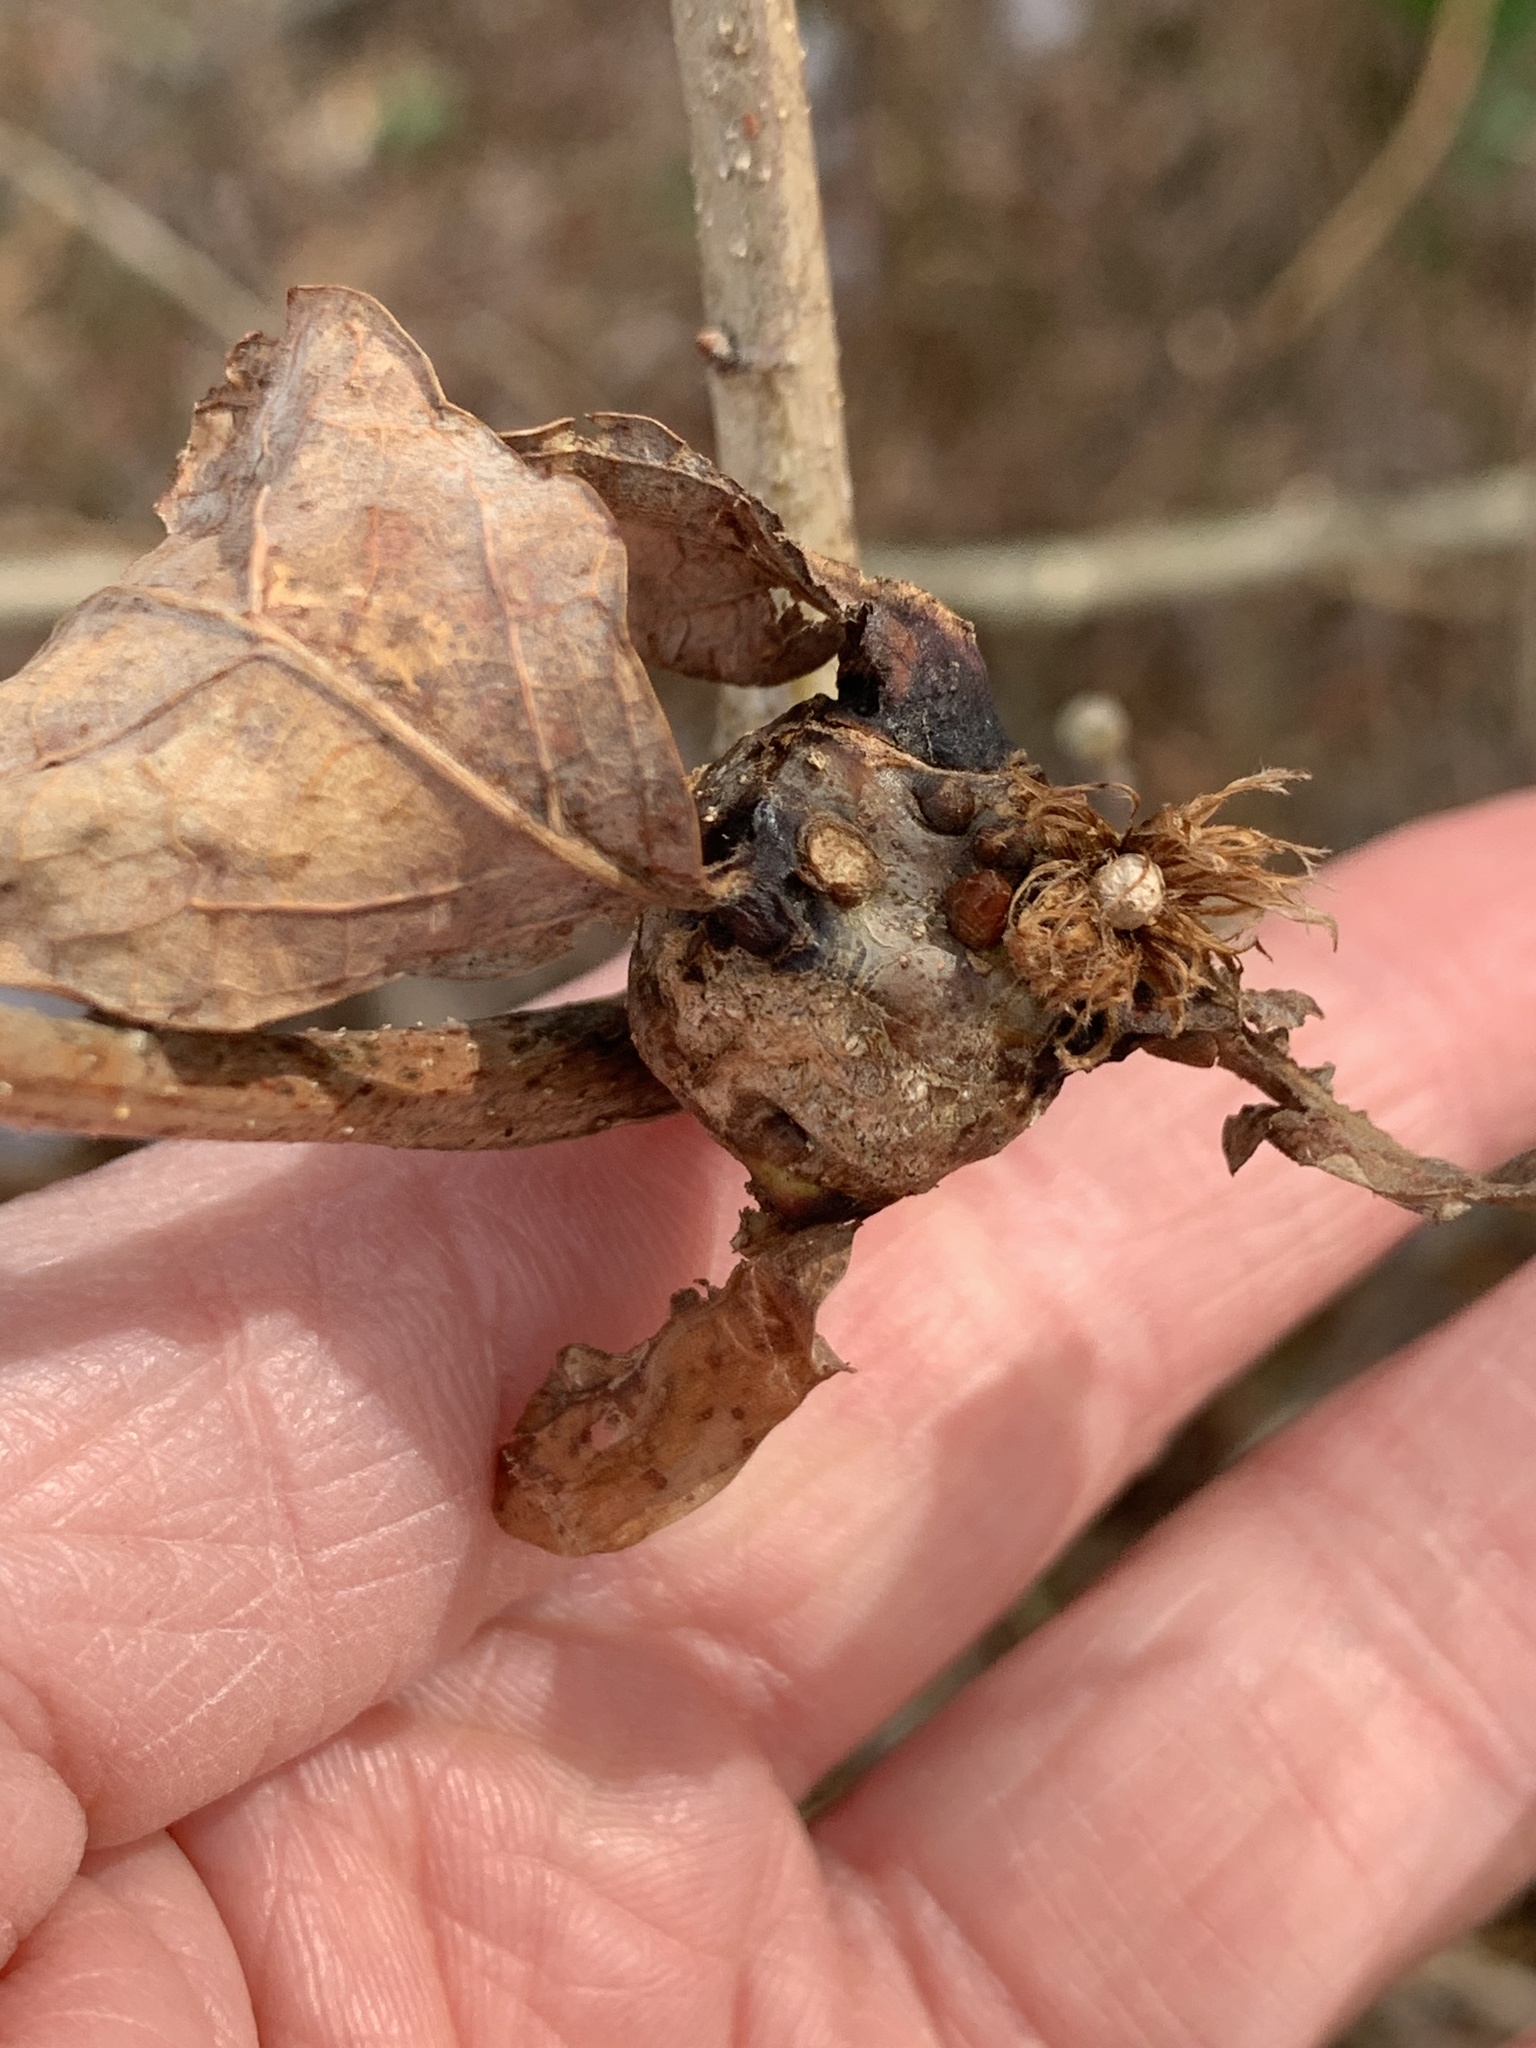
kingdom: Animalia
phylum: Arthropoda
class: Insecta
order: Hymenoptera
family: Cynipidae
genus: Callirhytis
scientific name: Callirhytis clavula
